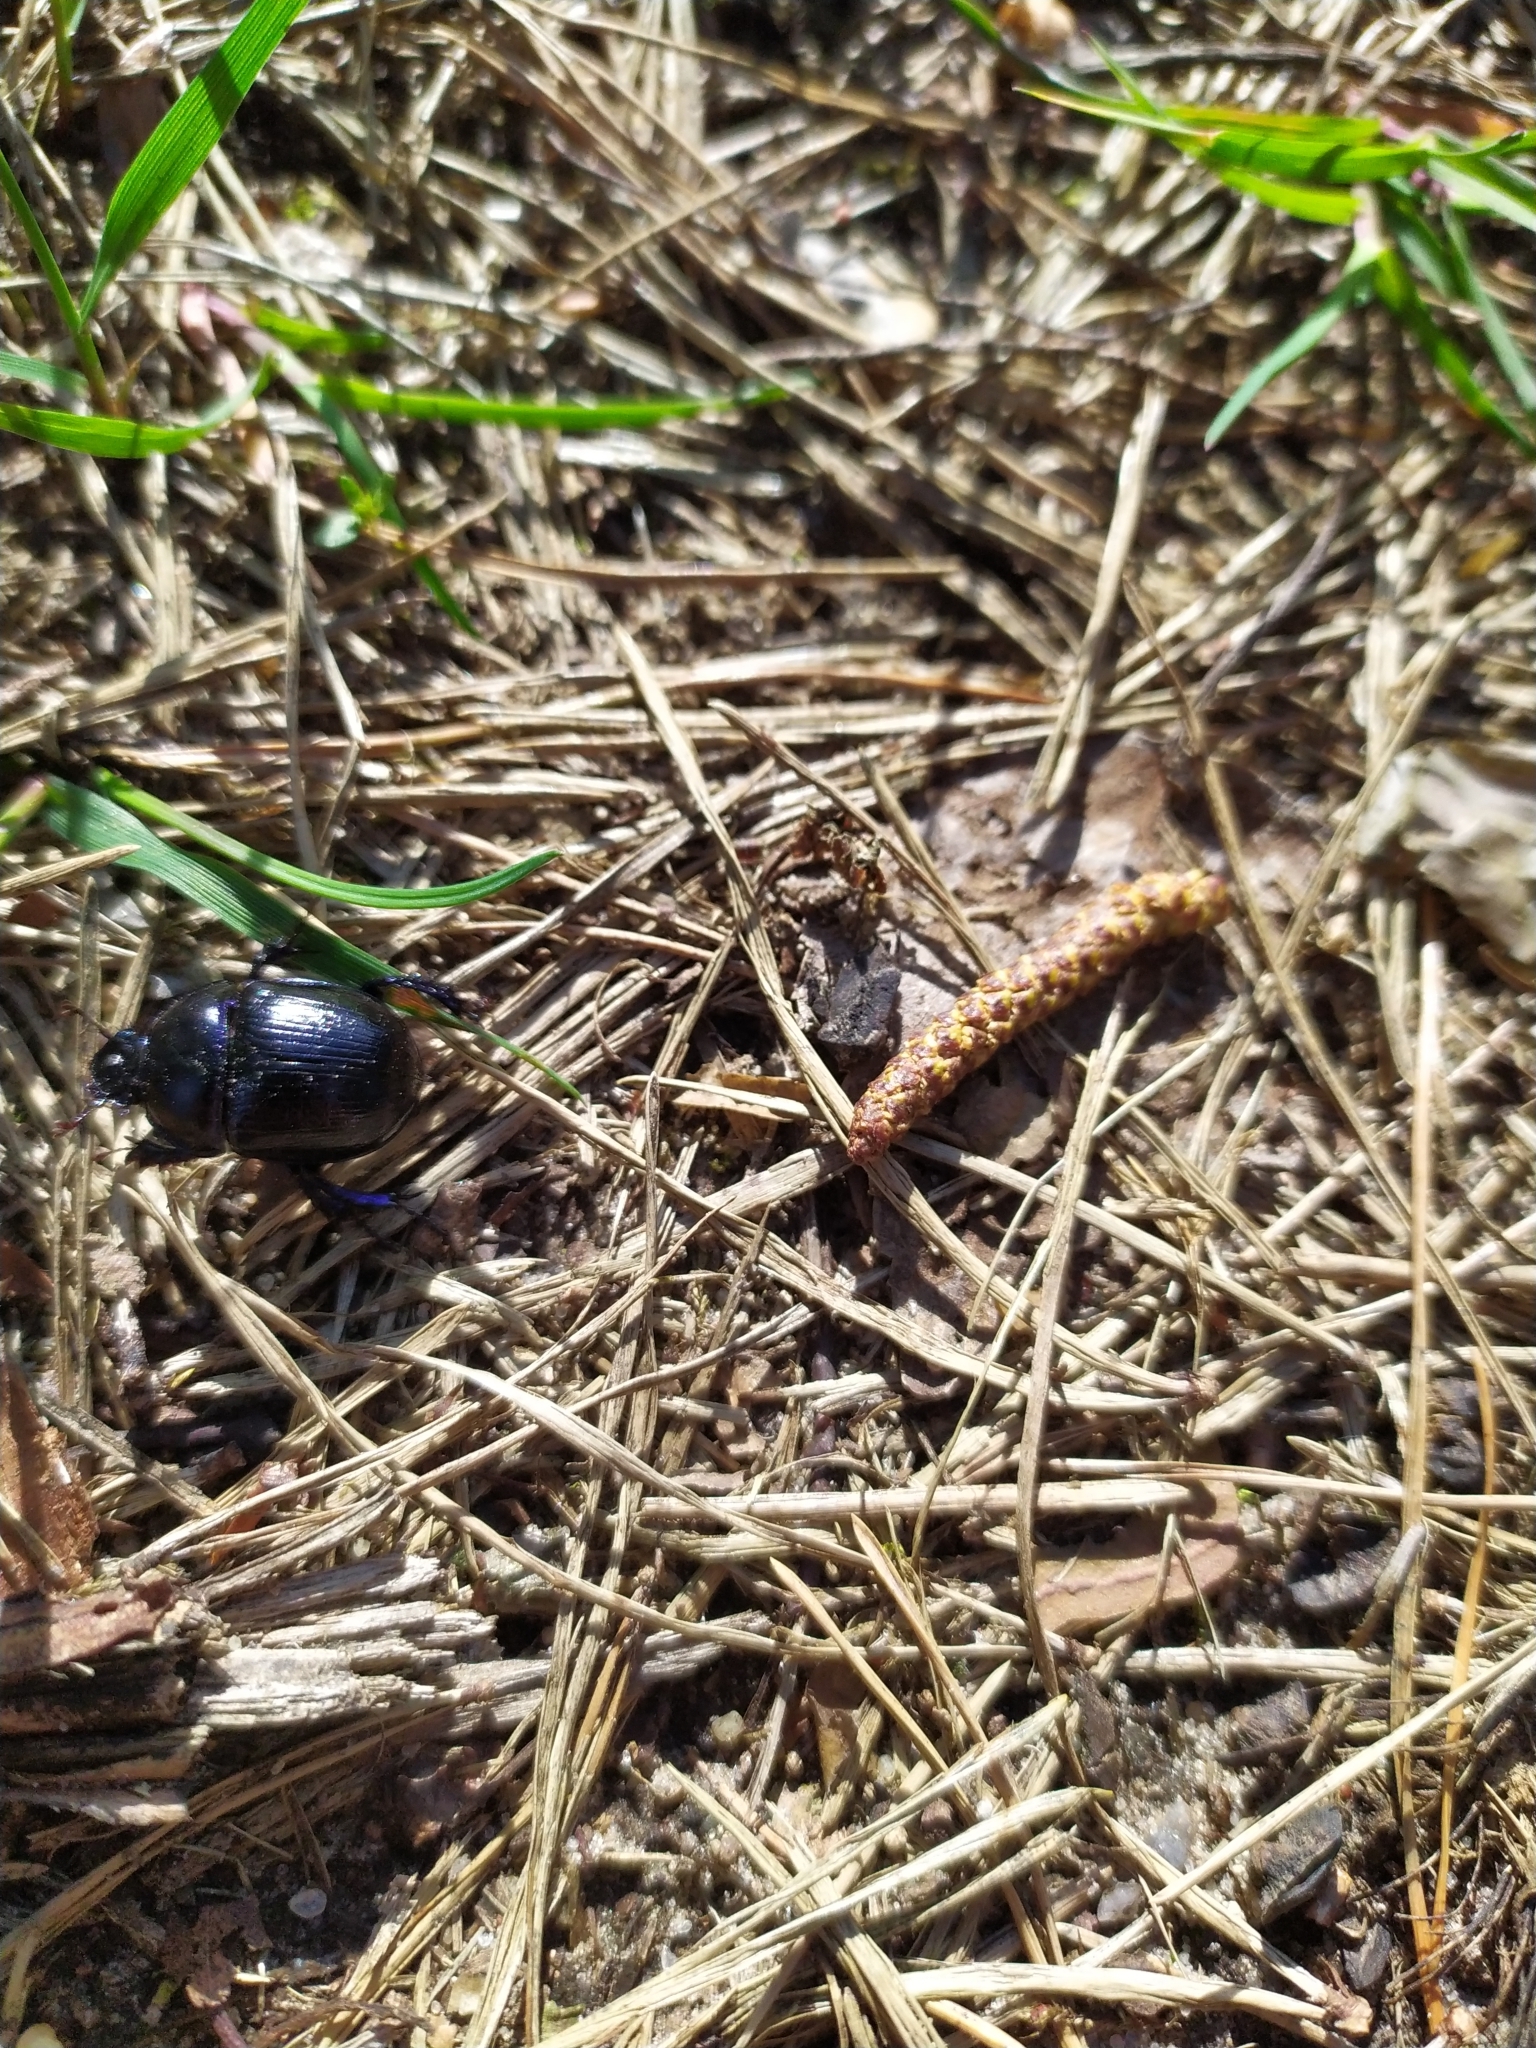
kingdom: Animalia
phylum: Arthropoda
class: Insecta
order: Coleoptera
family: Geotrupidae
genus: Anoplotrupes
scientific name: Anoplotrupes stercorosus
